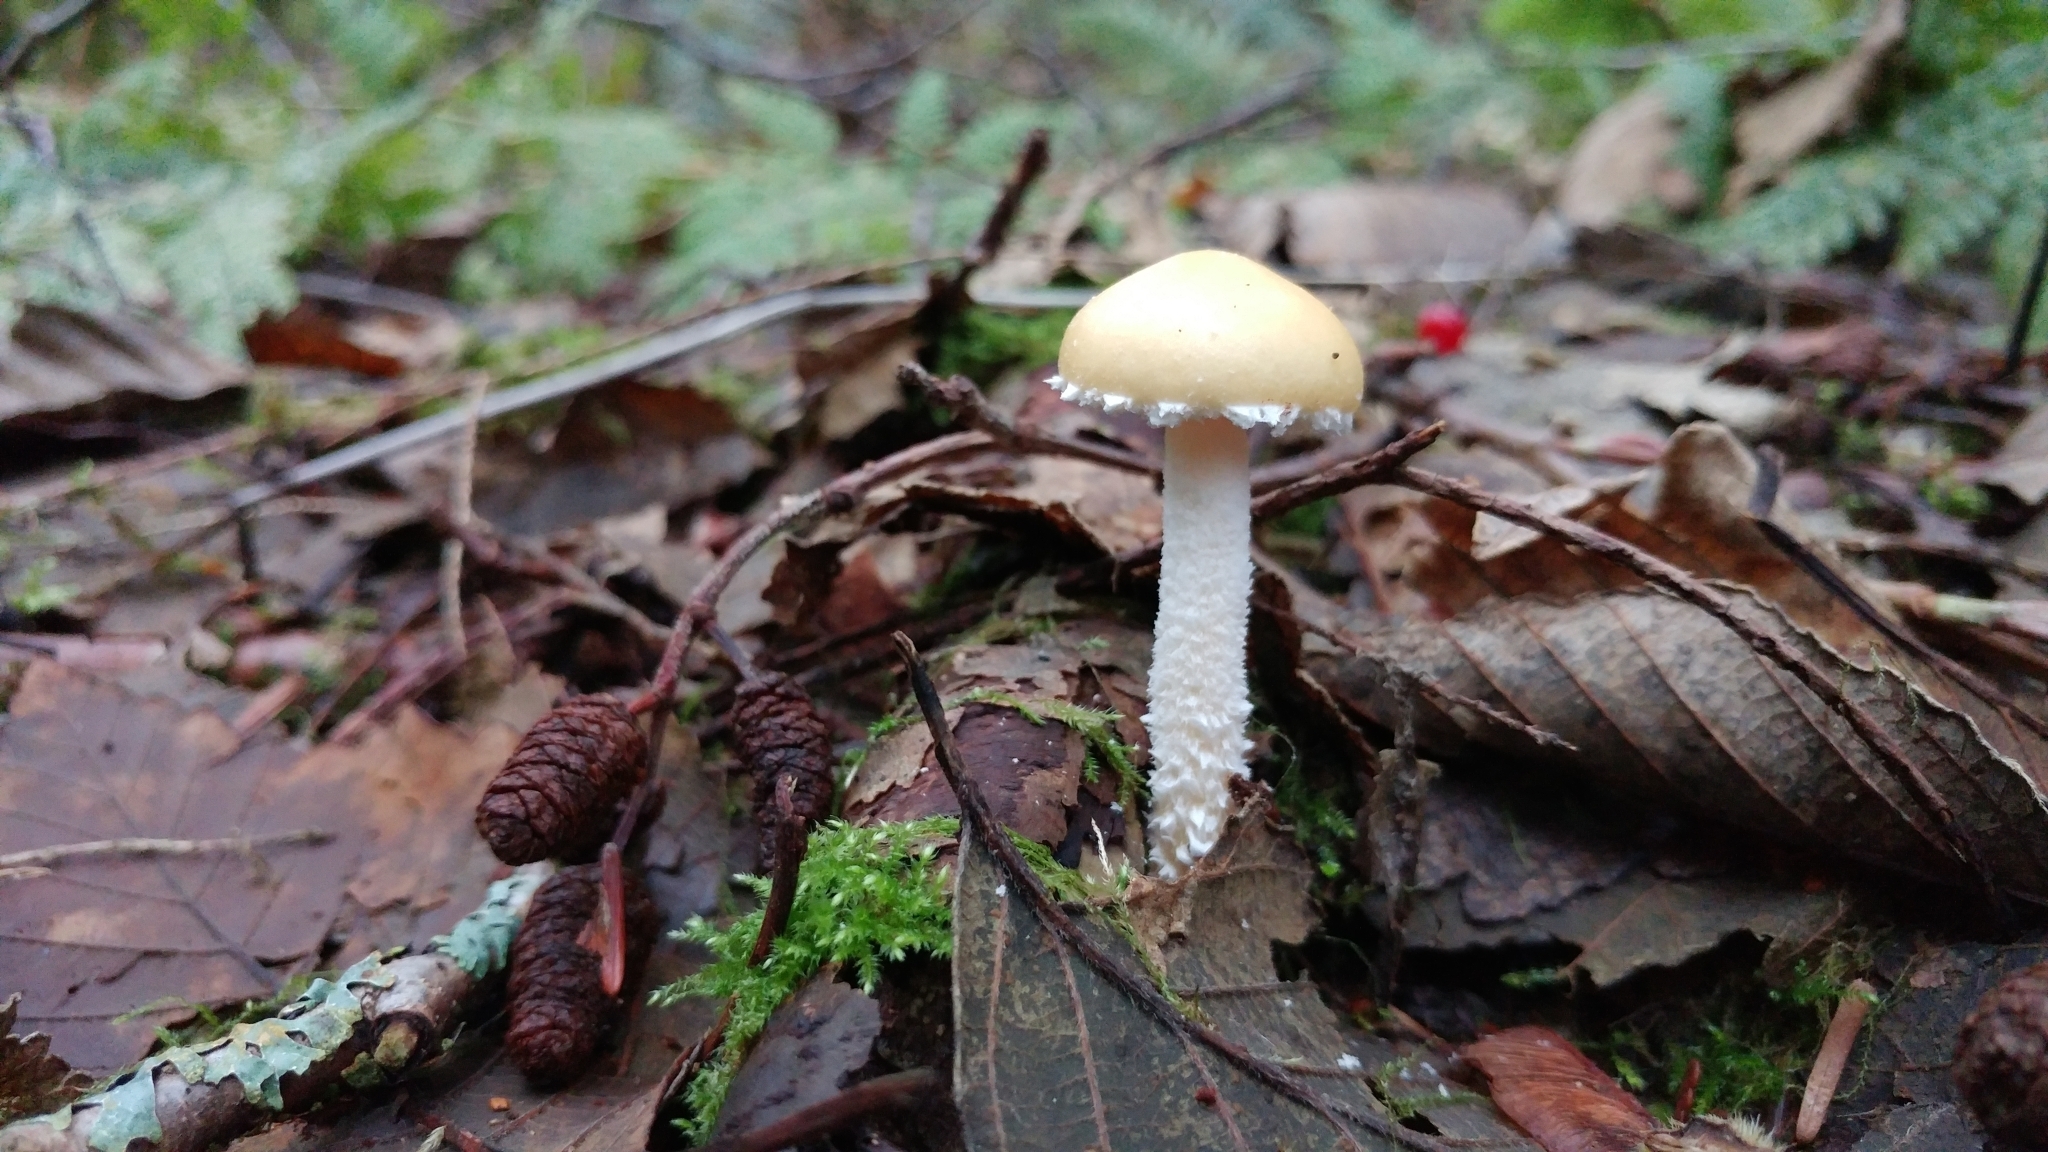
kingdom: Fungi
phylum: Basidiomycota
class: Agaricomycetes
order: Agaricales
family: Strophariaceae
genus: Stropharia
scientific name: Stropharia ambigua
